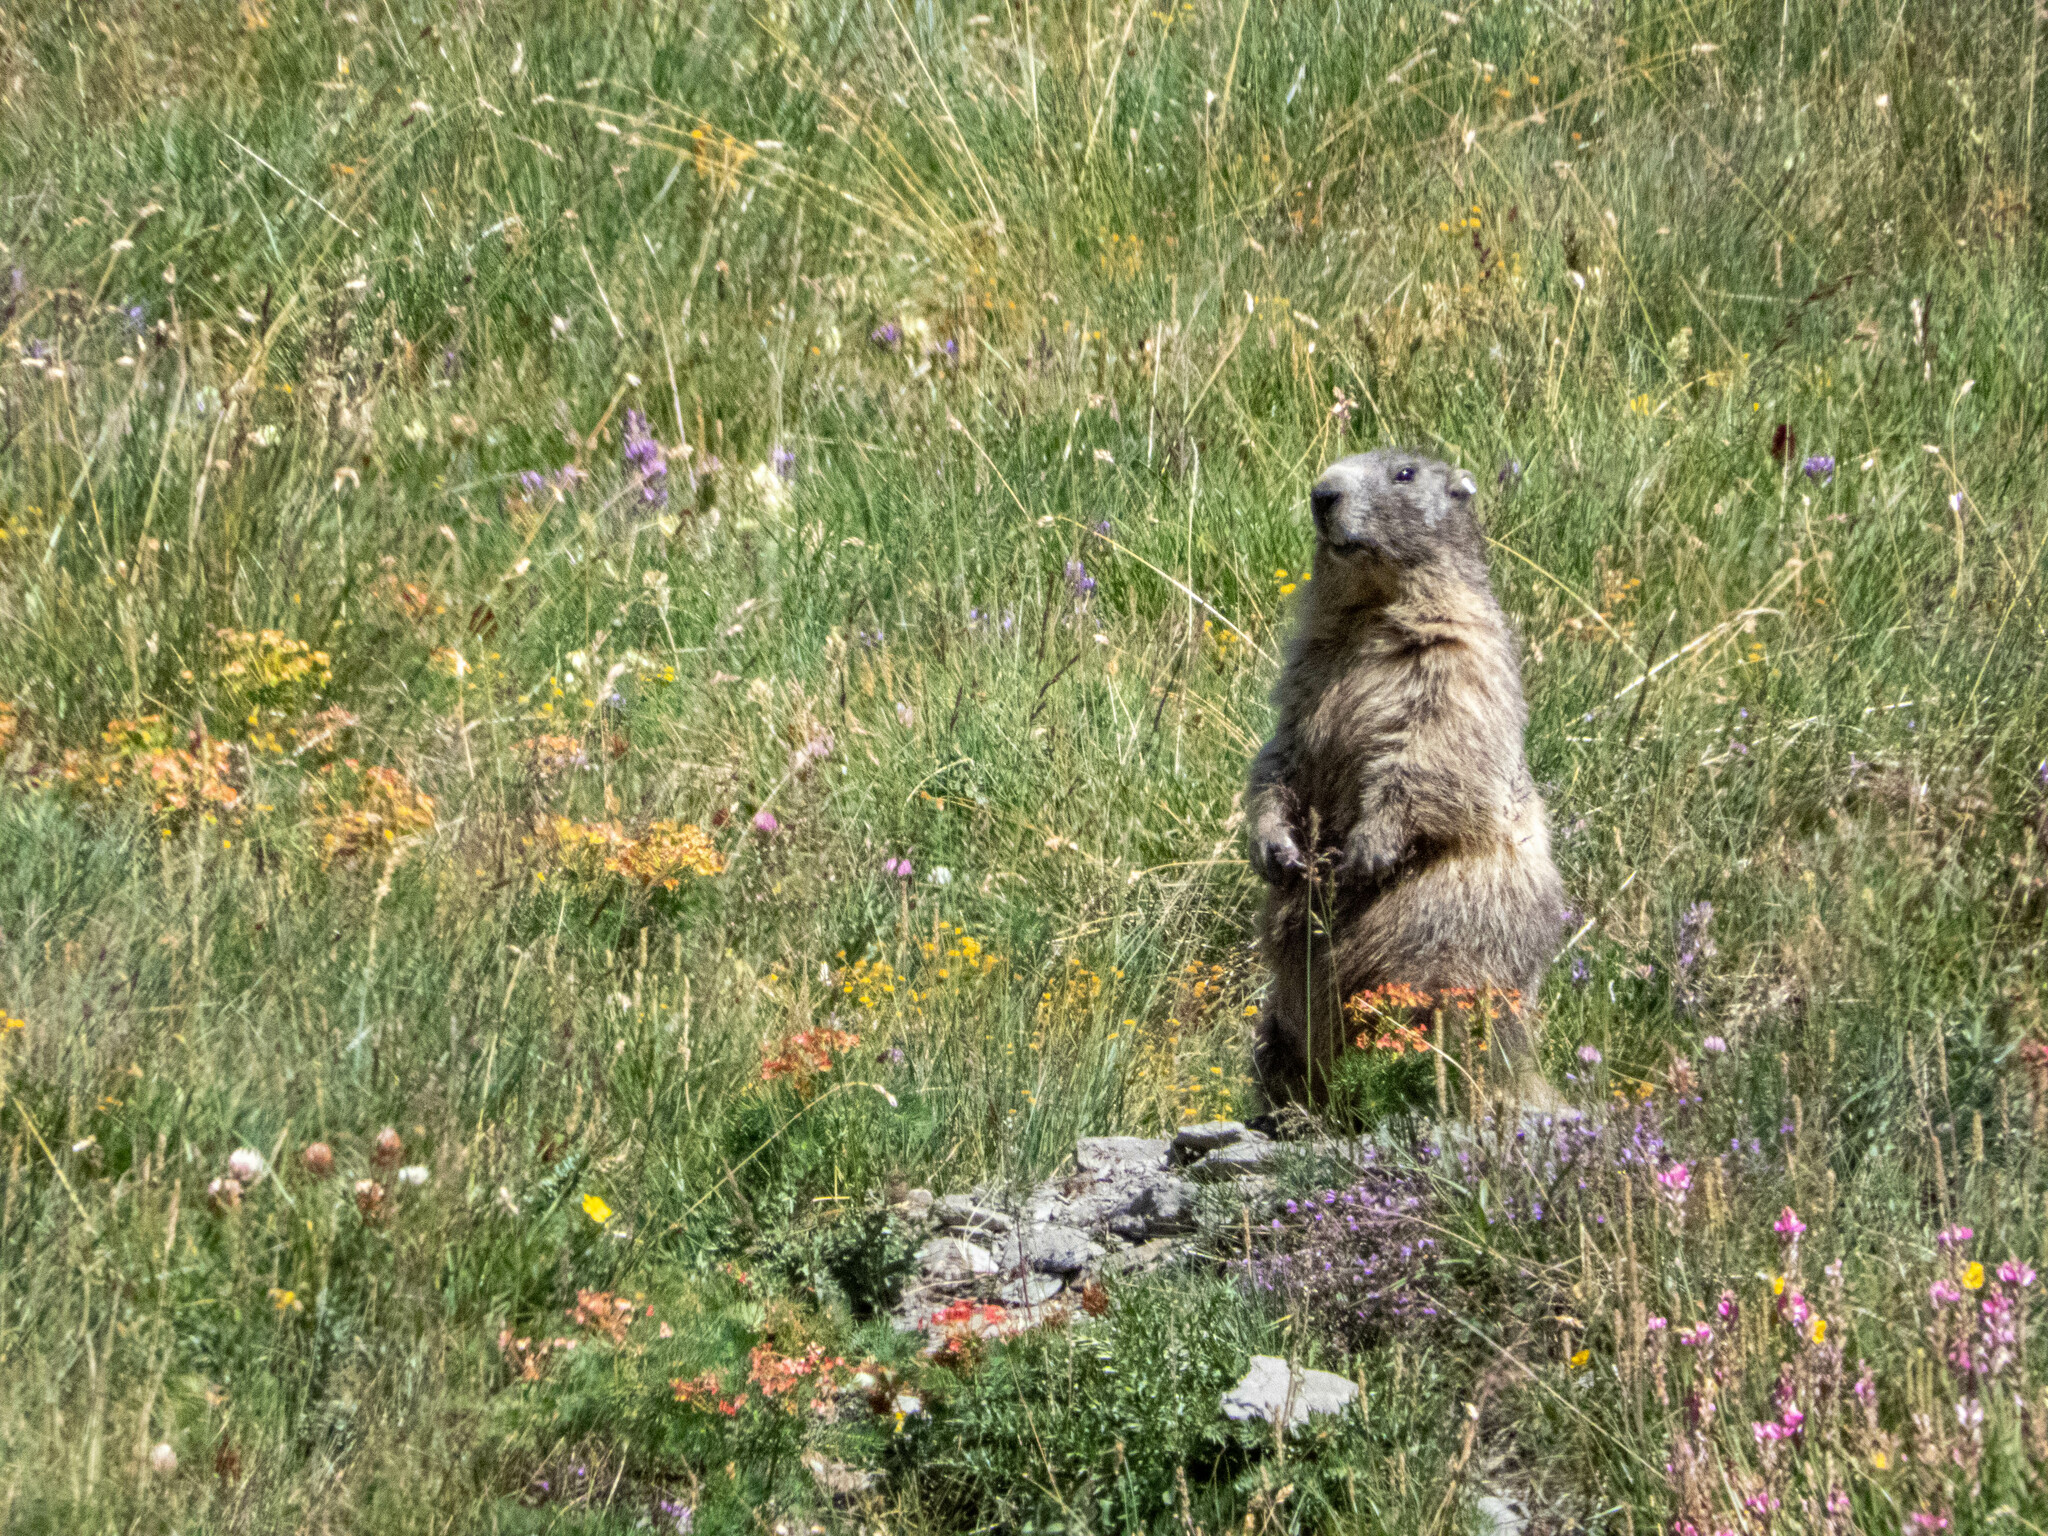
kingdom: Animalia
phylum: Chordata
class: Mammalia
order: Rodentia
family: Sciuridae
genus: Marmota
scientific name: Marmota marmota
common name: Alpine marmot
